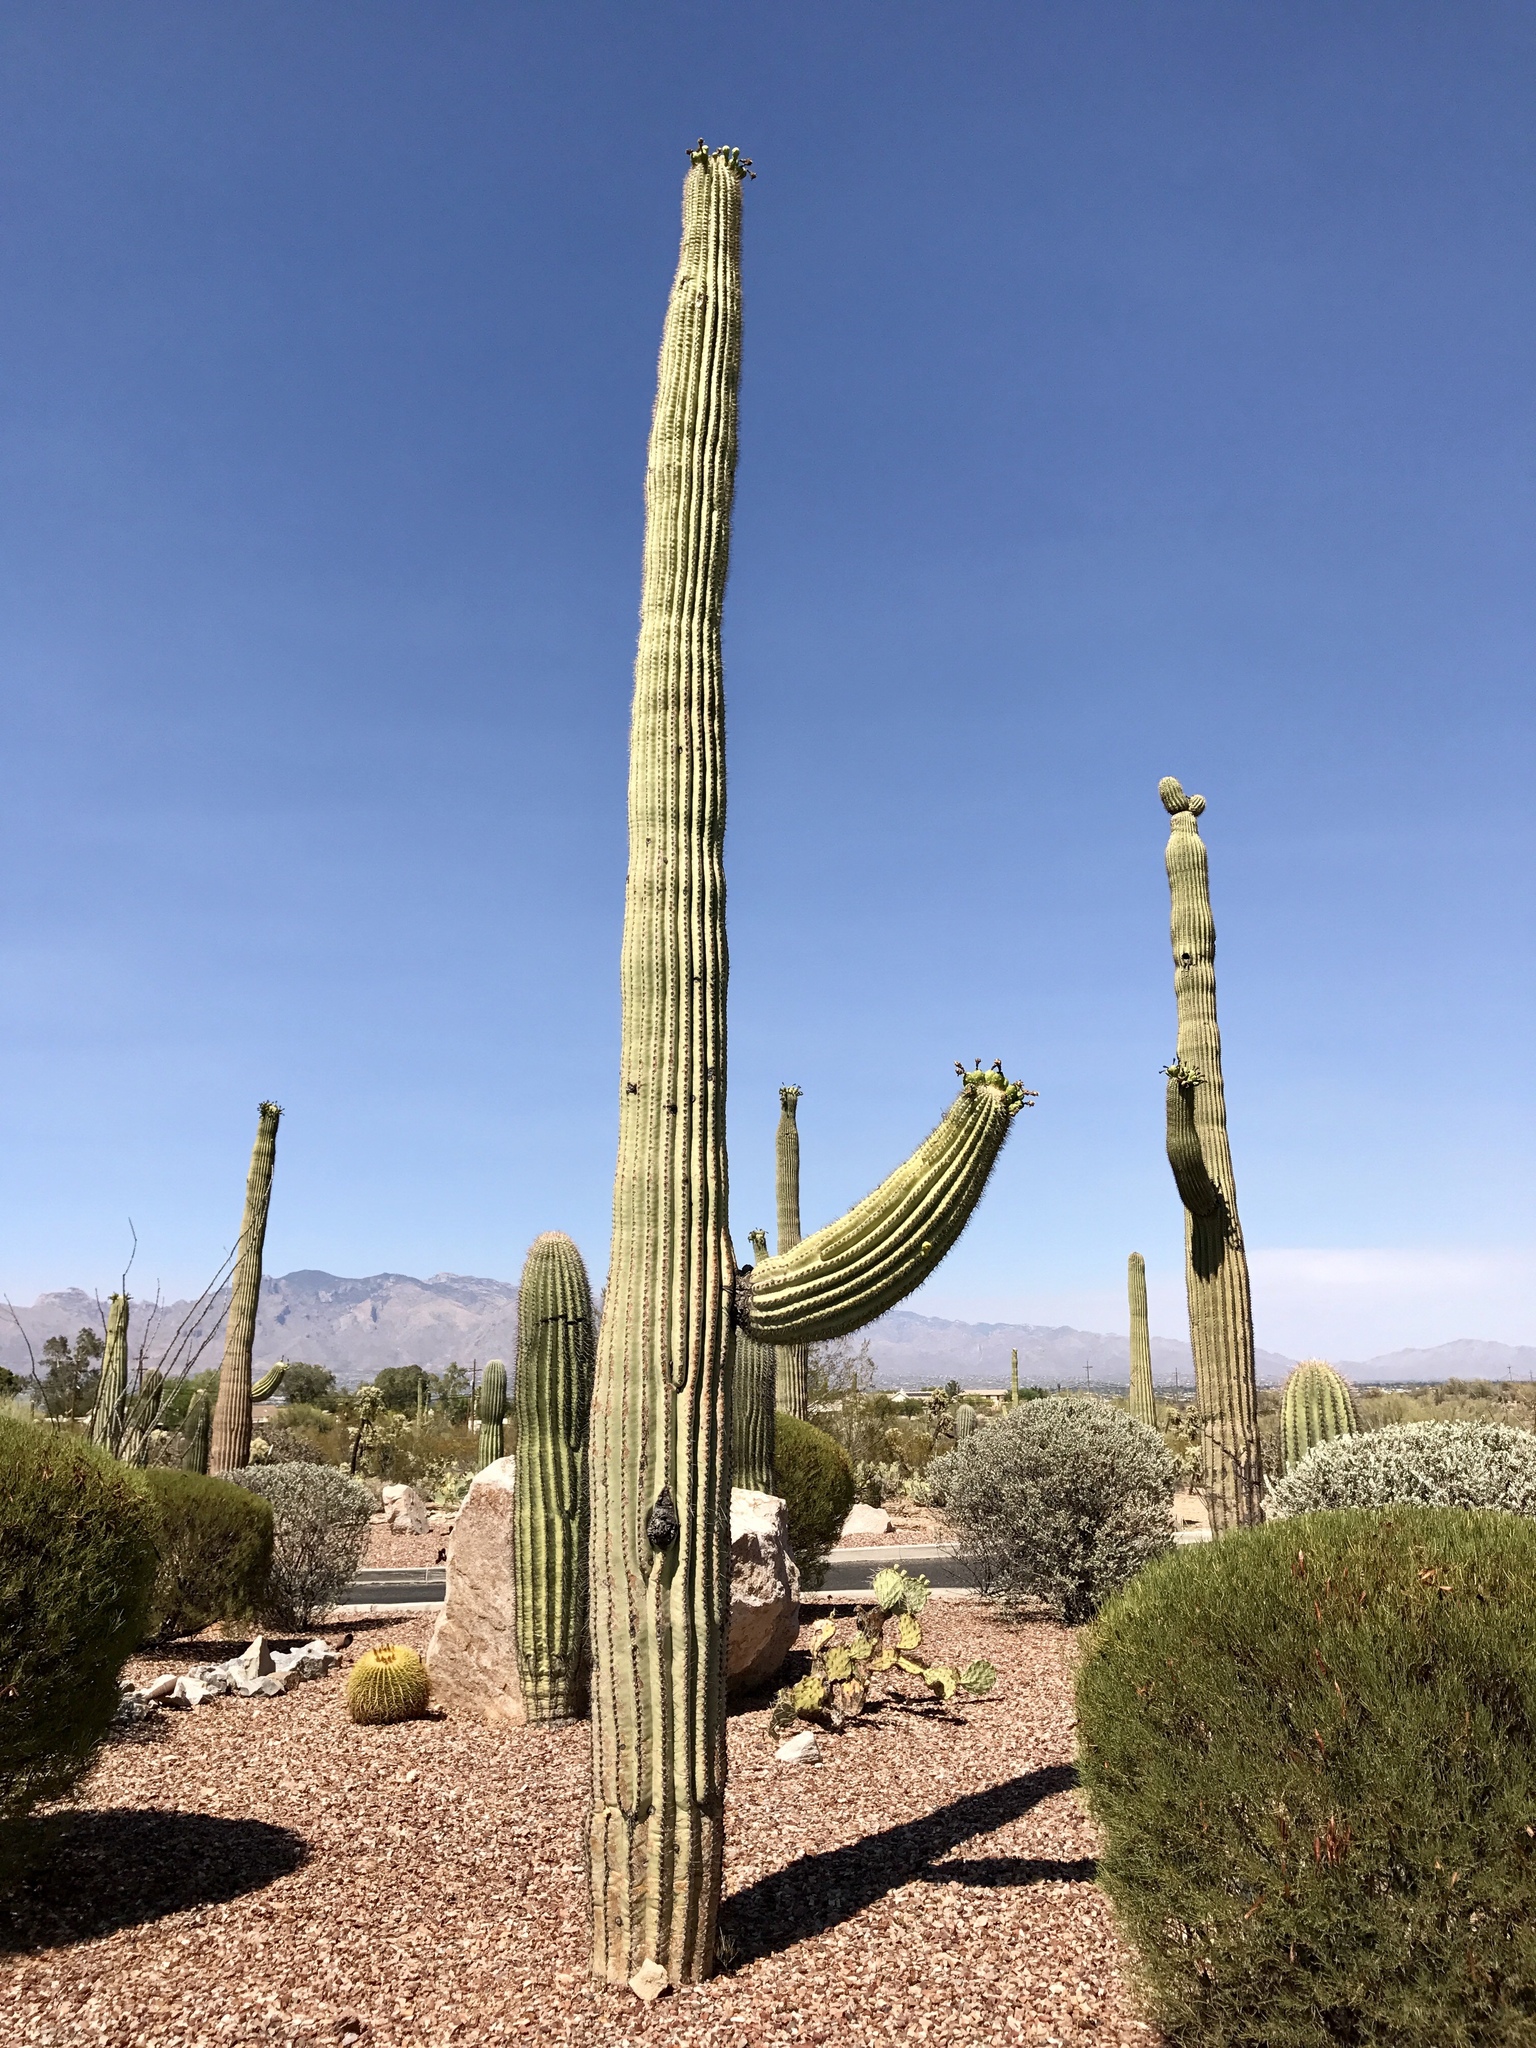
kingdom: Plantae
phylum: Tracheophyta
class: Magnoliopsida
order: Caryophyllales
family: Cactaceae
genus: Carnegiea
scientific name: Carnegiea gigantea
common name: Saguaro
